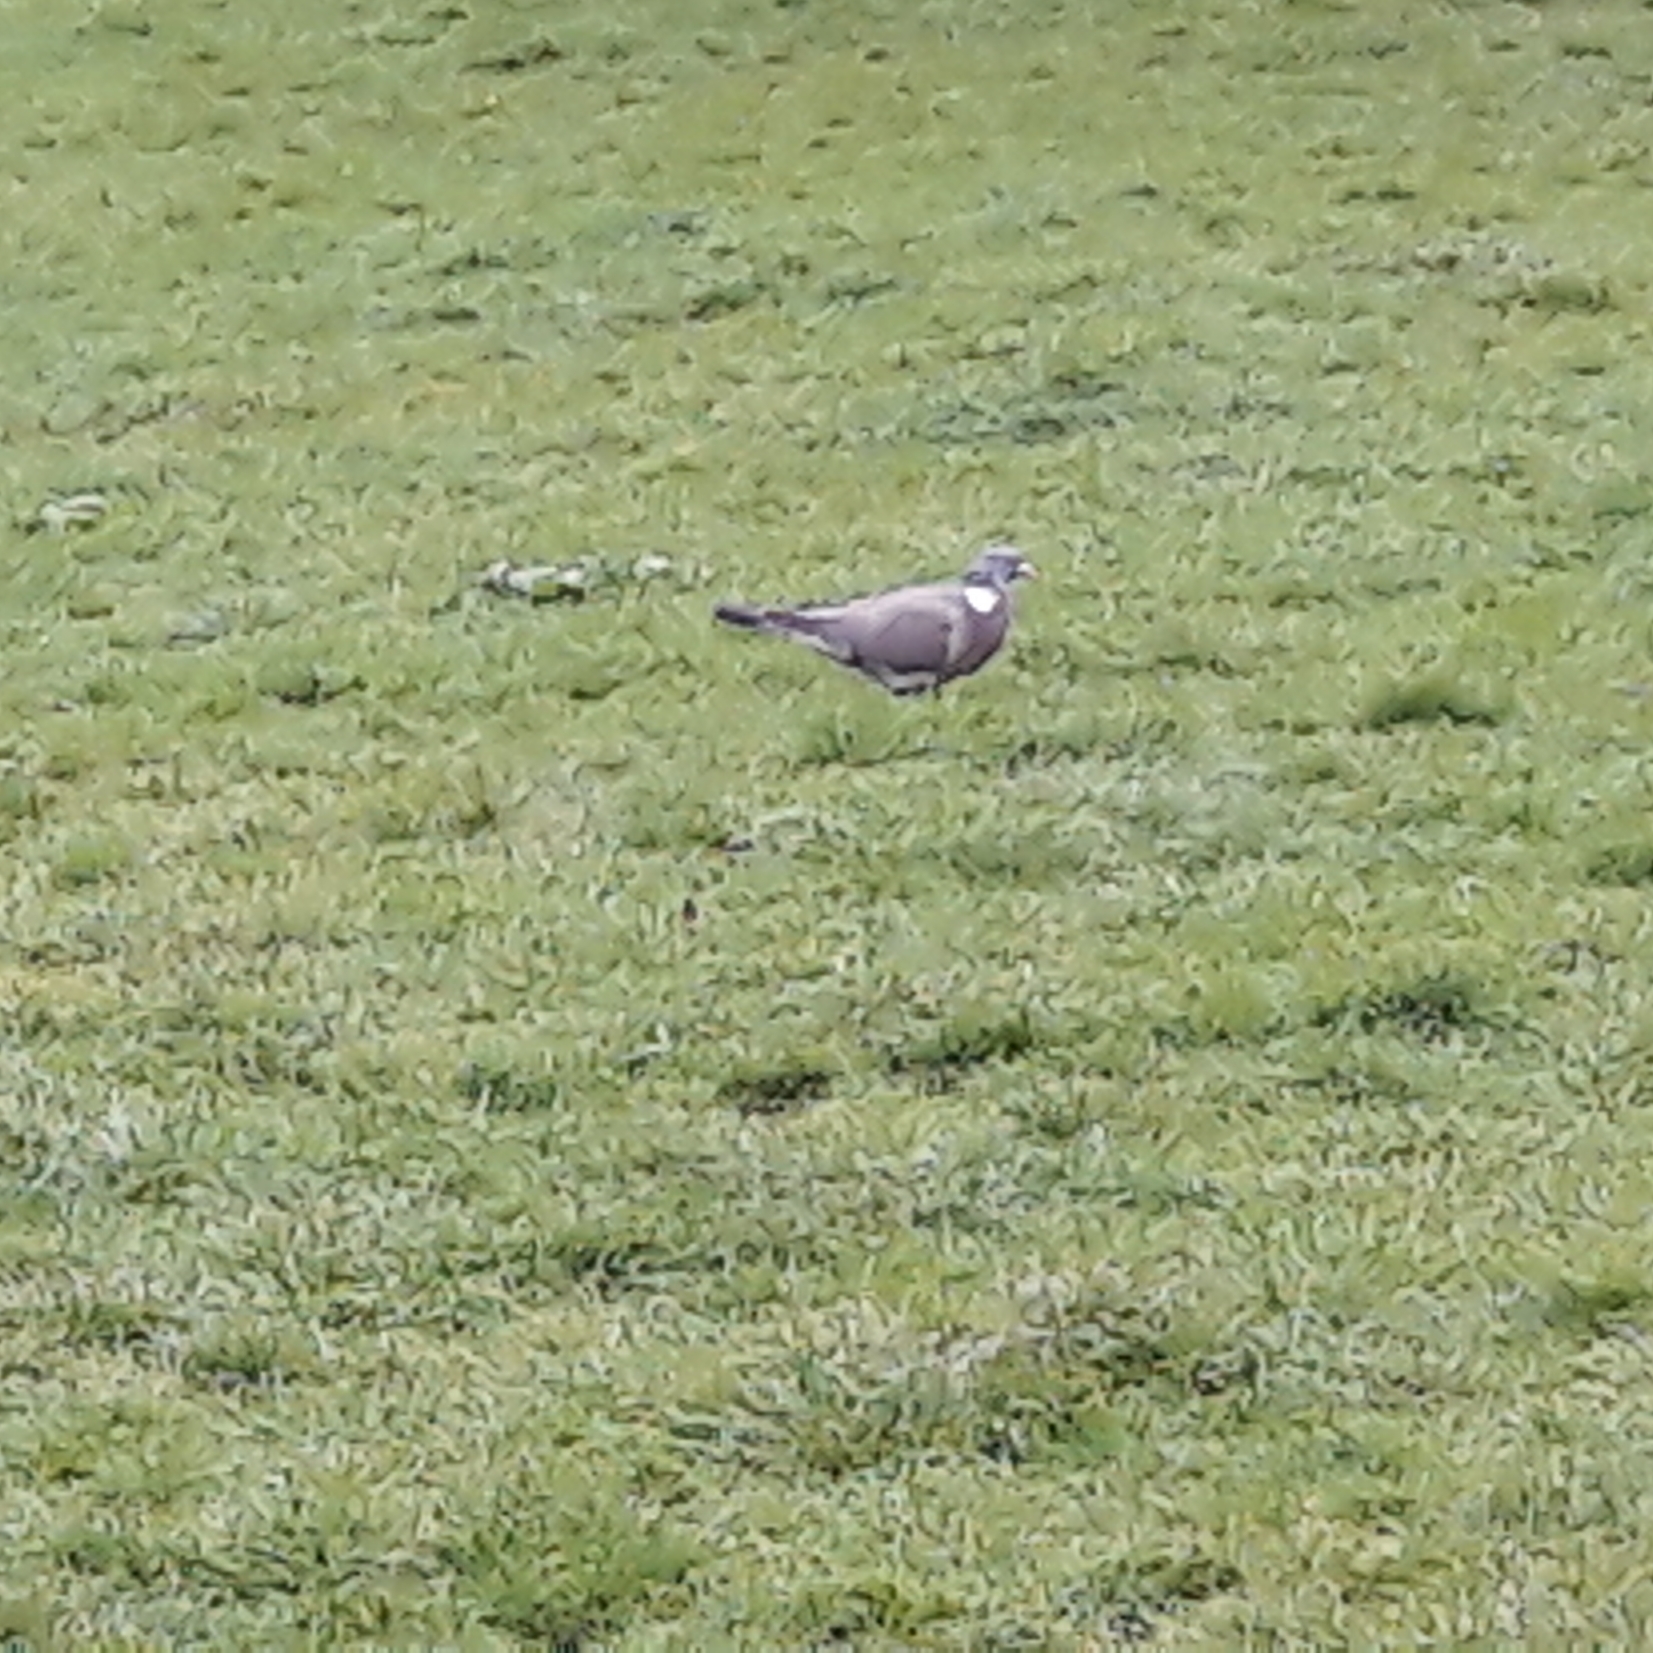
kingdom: Animalia
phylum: Chordata
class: Aves
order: Columbiformes
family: Columbidae
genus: Columba
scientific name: Columba palumbus
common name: Common wood pigeon
